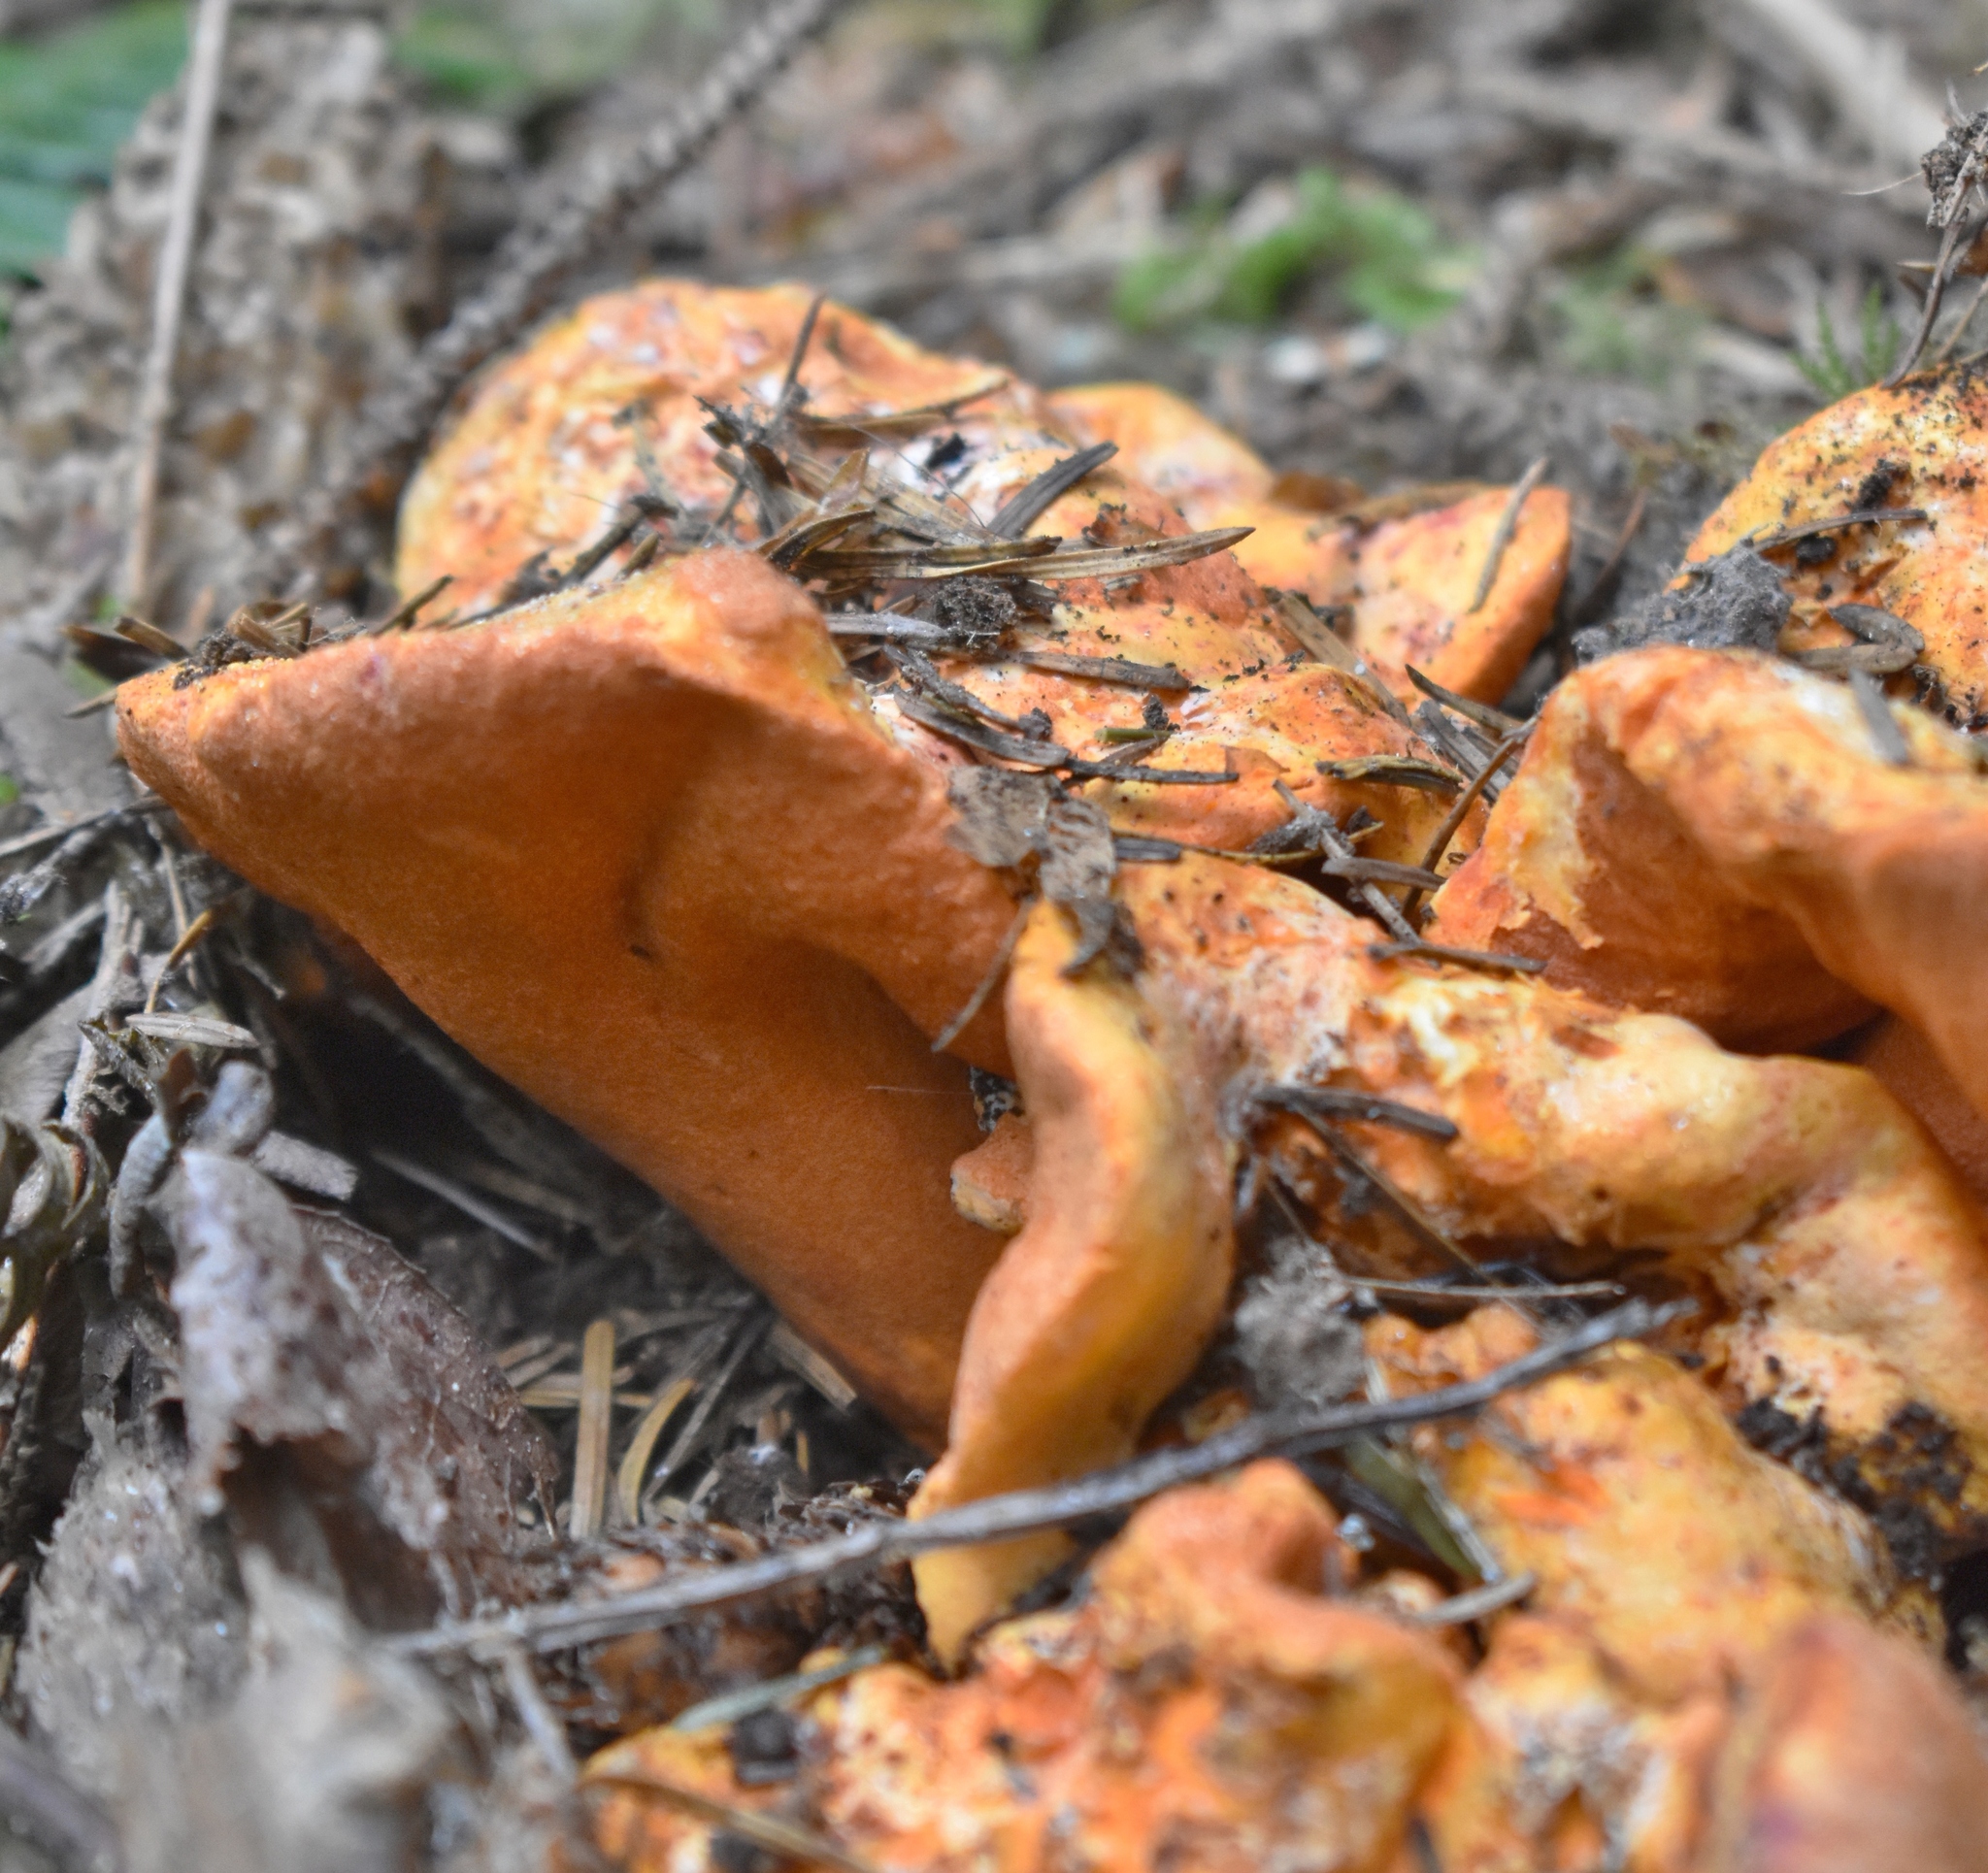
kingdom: Fungi
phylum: Ascomycota
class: Sordariomycetes
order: Hypocreales
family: Hypocreaceae
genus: Hypomyces
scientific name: Hypomyces lactifluorum
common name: Lobster mushroom
